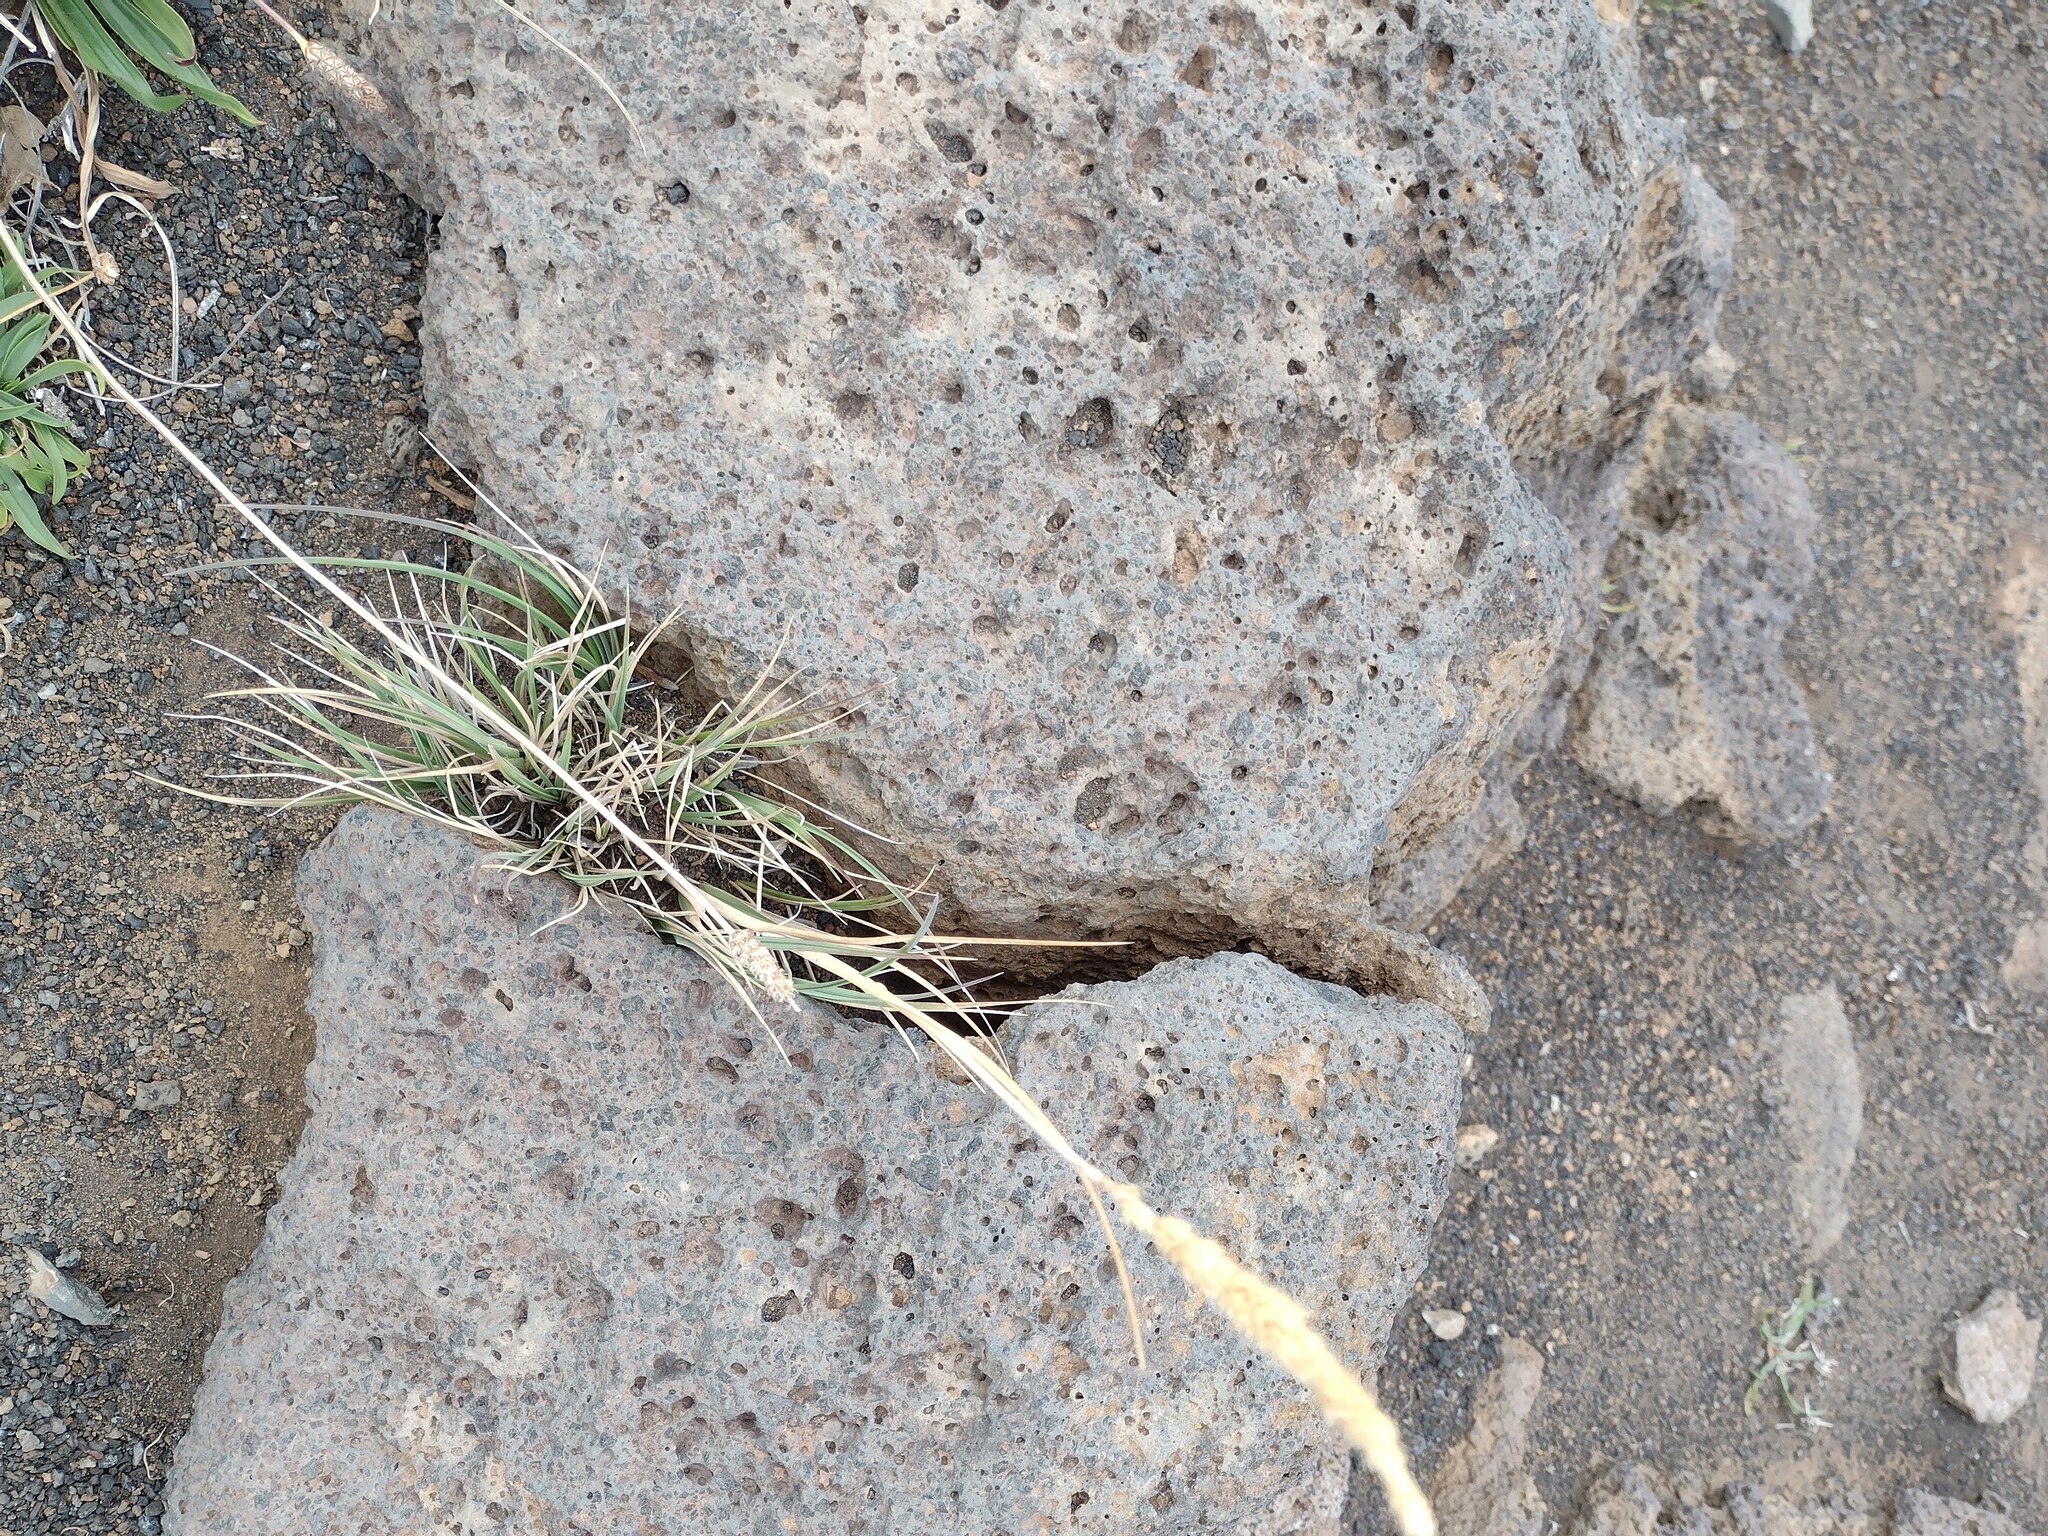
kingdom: Plantae
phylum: Tracheophyta
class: Liliopsida
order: Poales
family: Poaceae
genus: Trisetum
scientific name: Trisetum glomeratum
